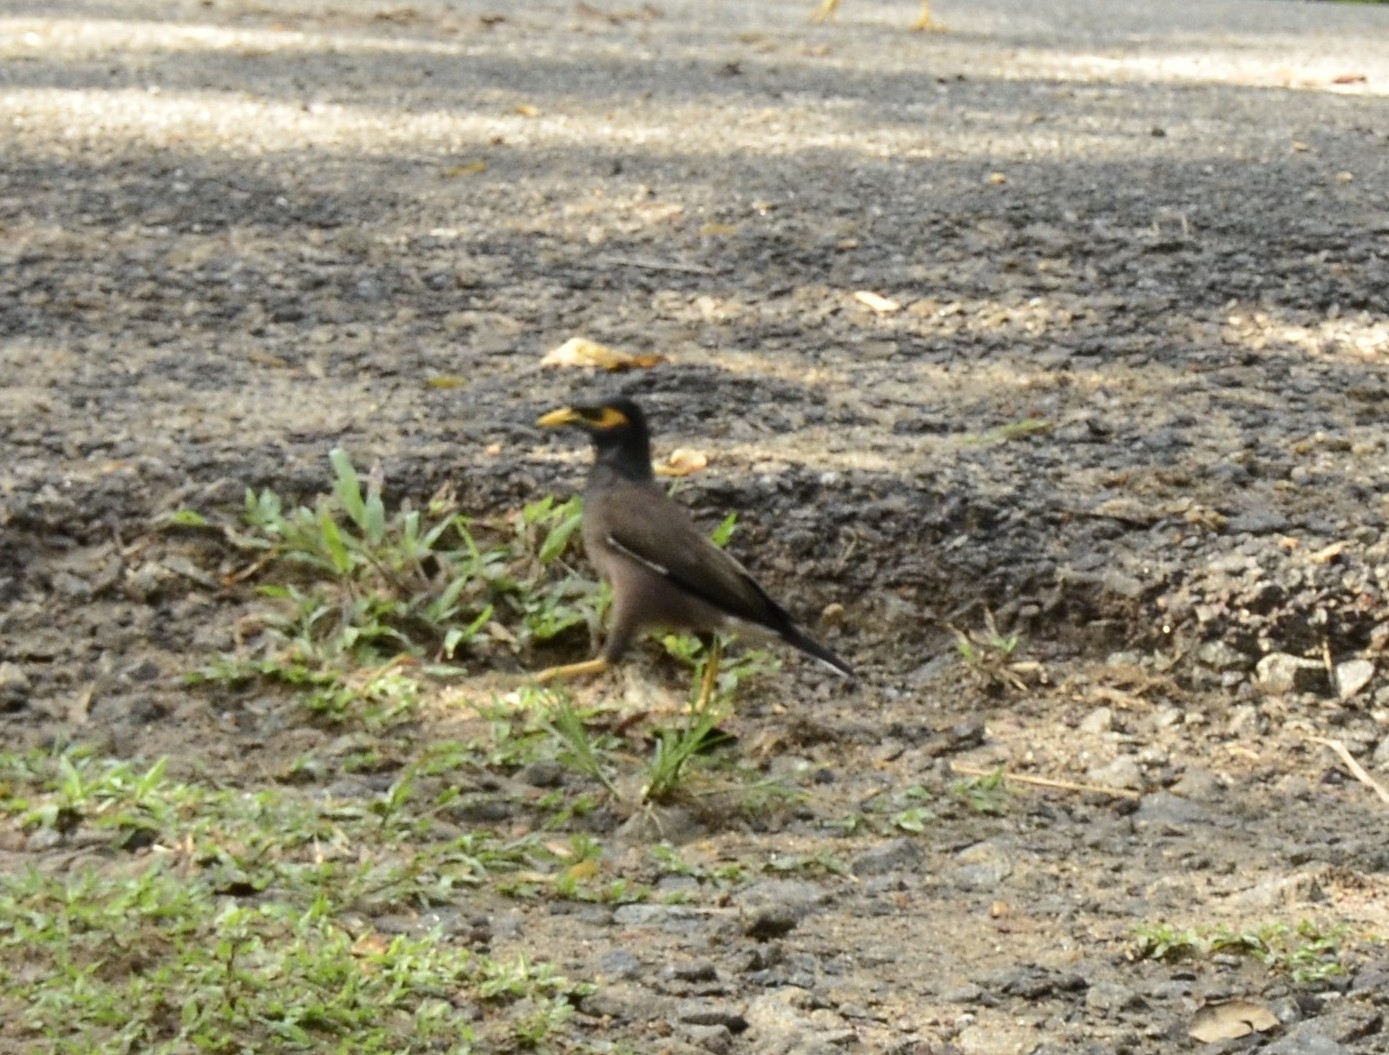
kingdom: Animalia
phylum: Chordata
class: Aves
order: Passeriformes
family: Sturnidae
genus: Acridotheres
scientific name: Acridotheres tristis
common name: Common myna
